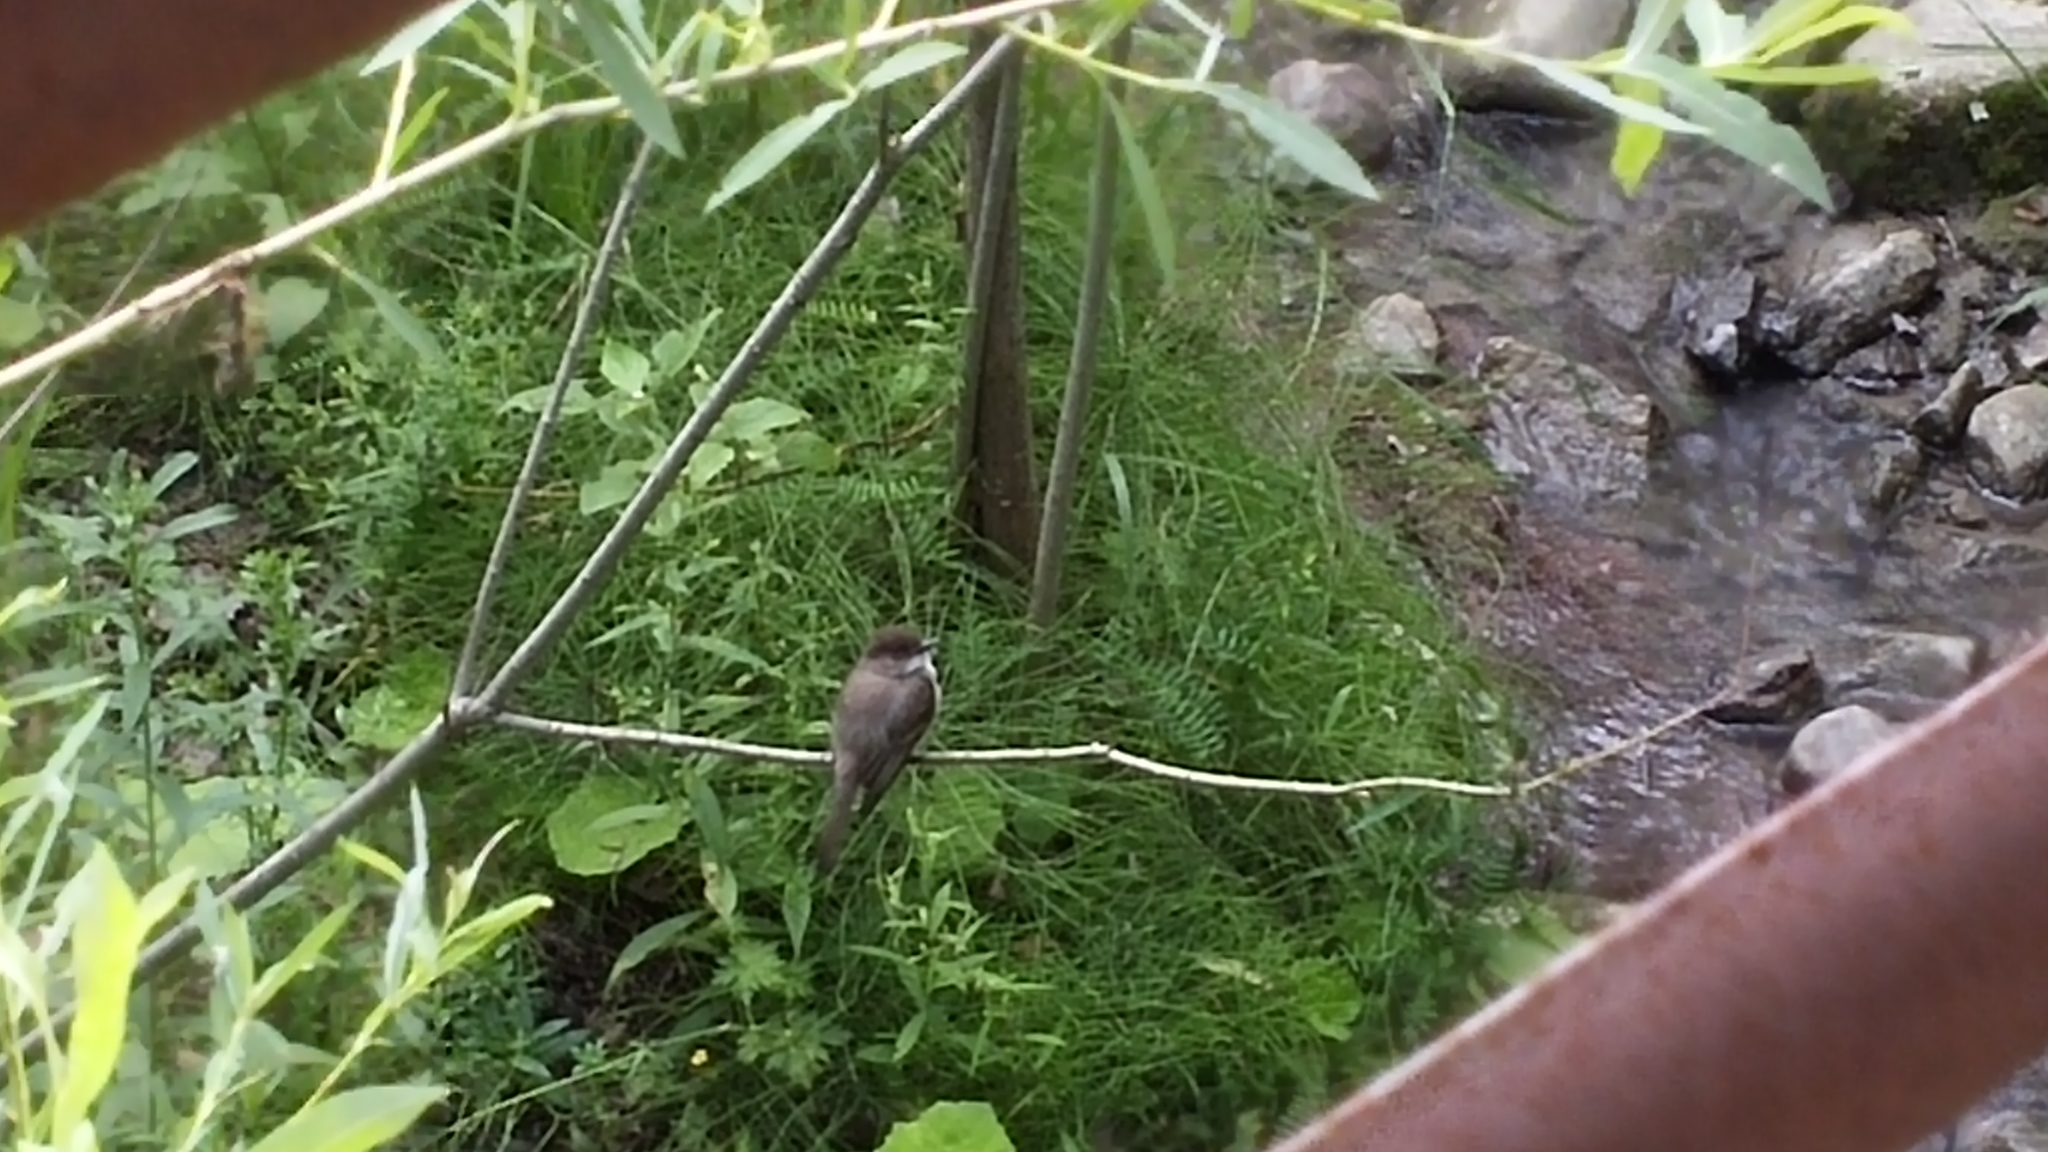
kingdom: Animalia
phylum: Chordata
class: Aves
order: Passeriformes
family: Tyrannidae
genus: Sayornis
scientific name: Sayornis phoebe
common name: Eastern phoebe
